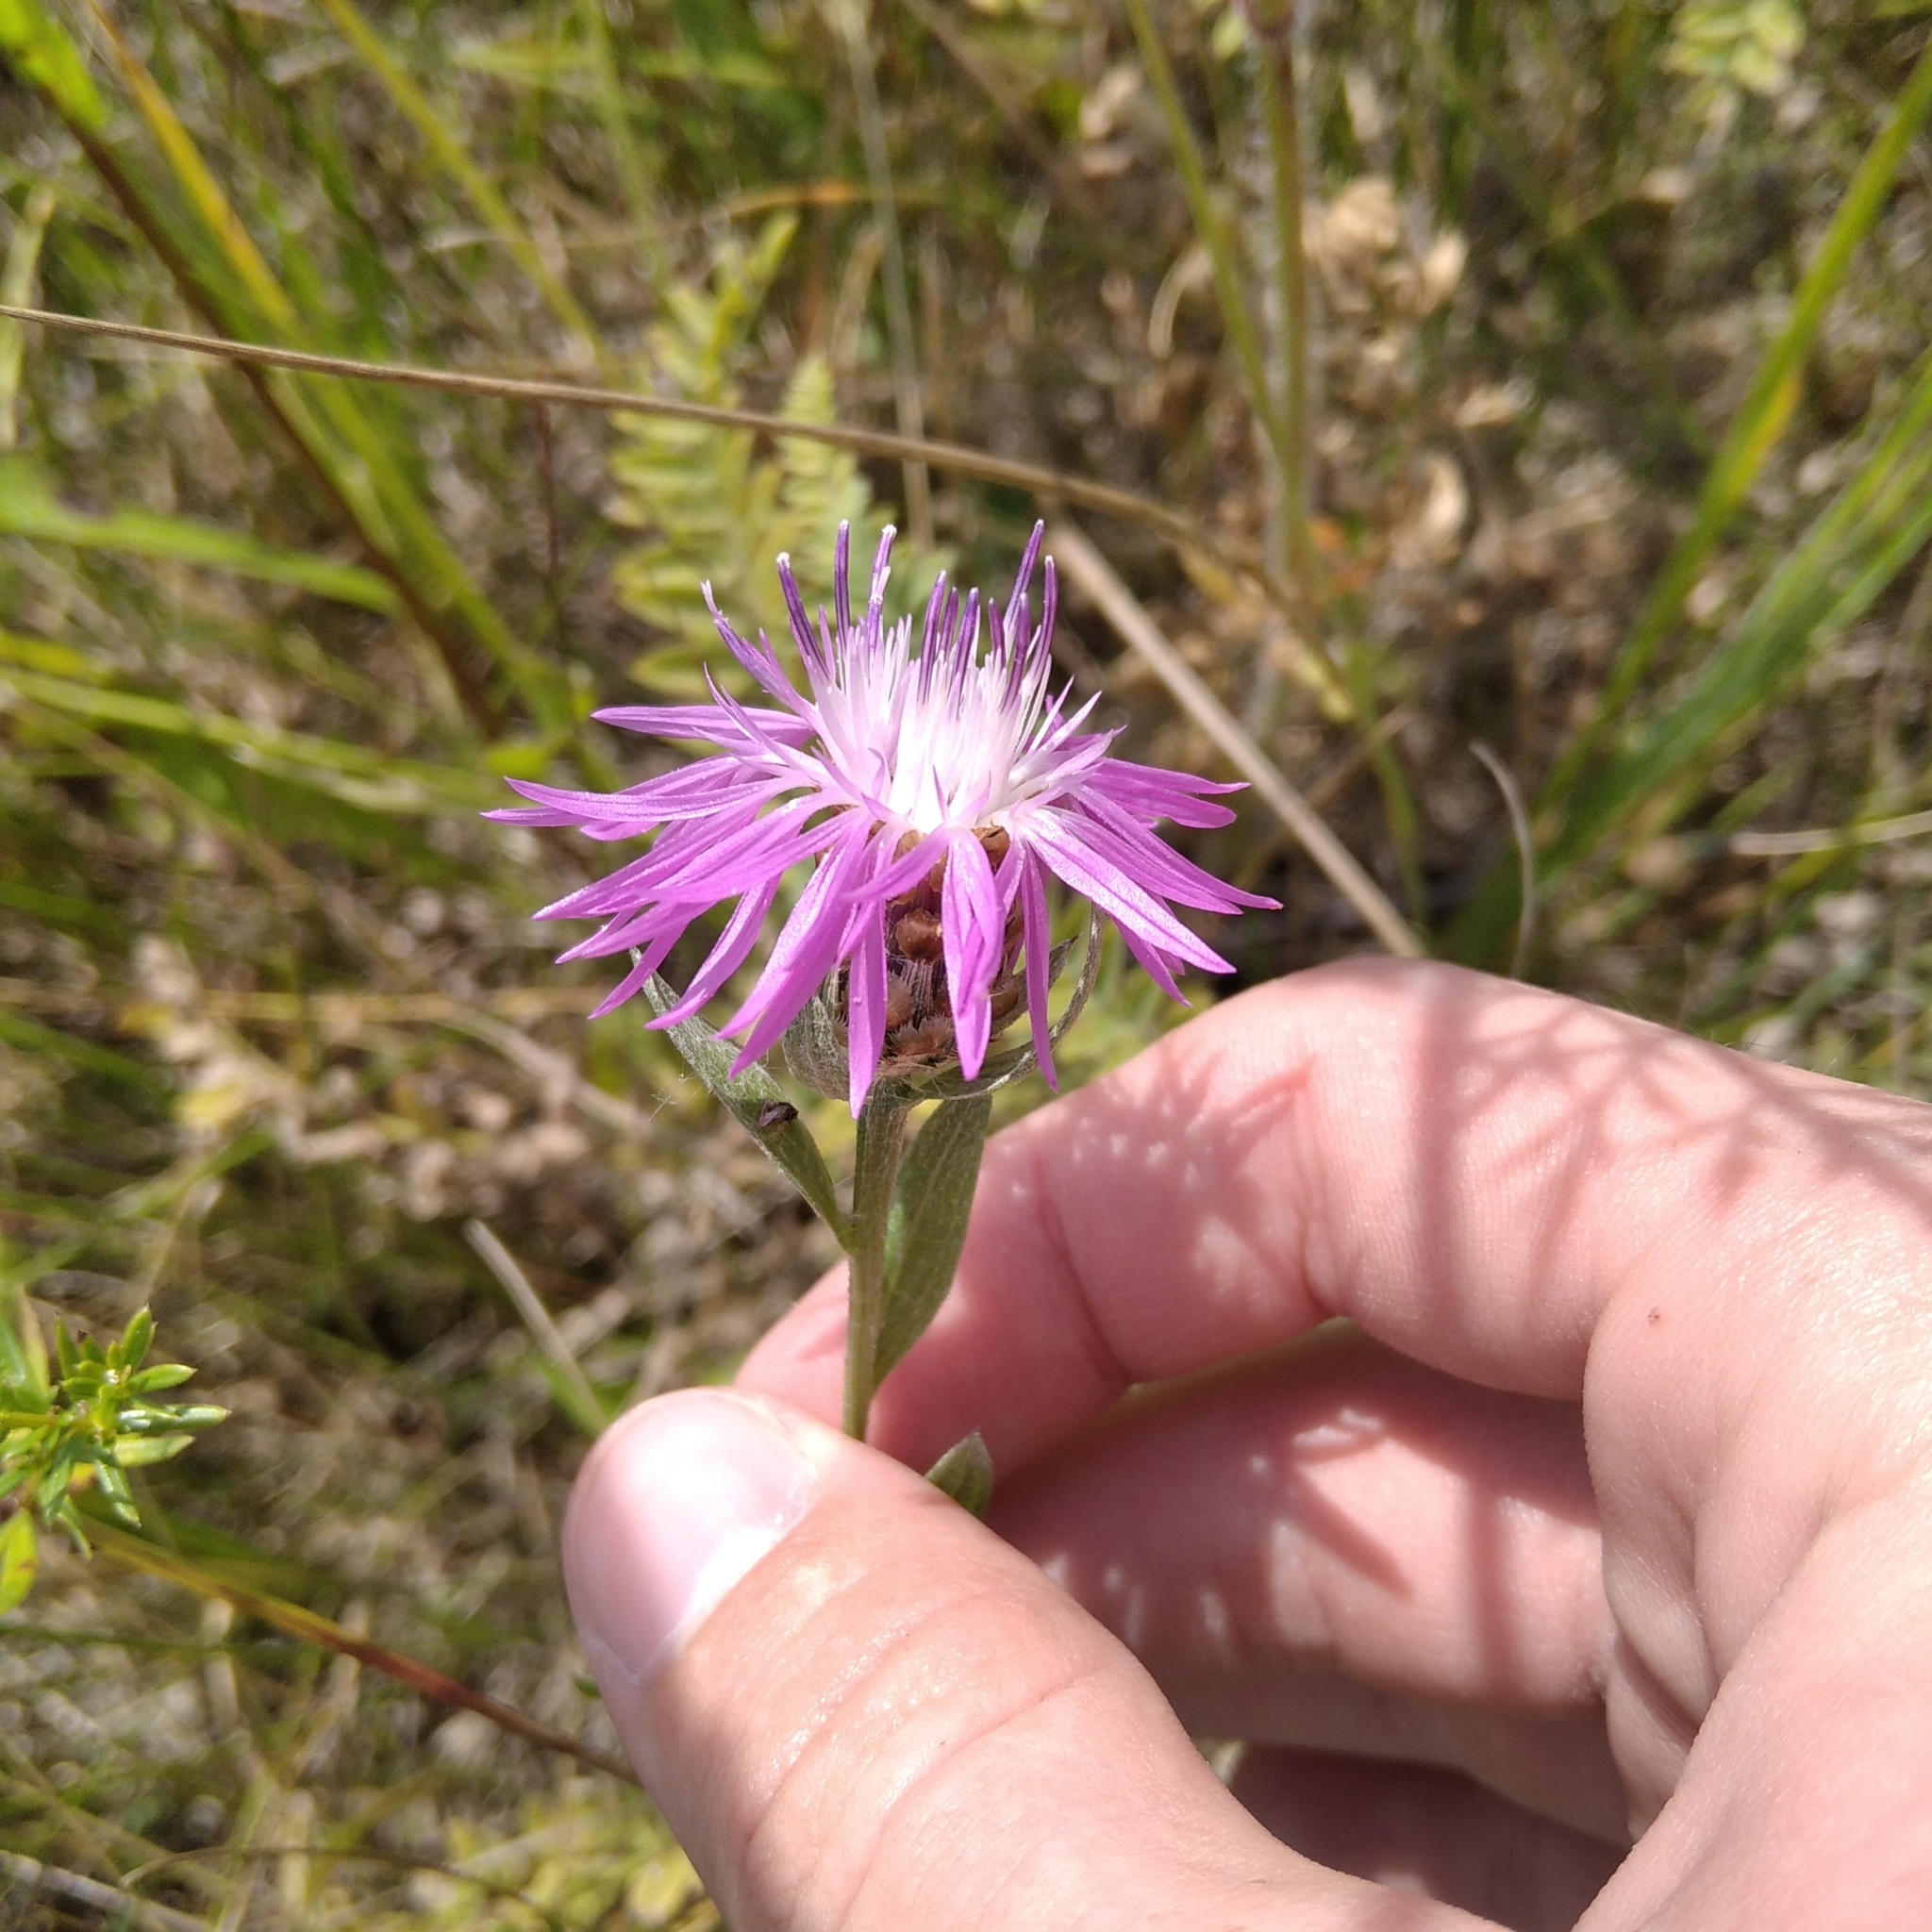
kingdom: Plantae
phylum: Tracheophyta
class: Magnoliopsida
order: Asterales
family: Asteraceae
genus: Centaurea
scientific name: Centaurea jacea
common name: Brown knapweed
